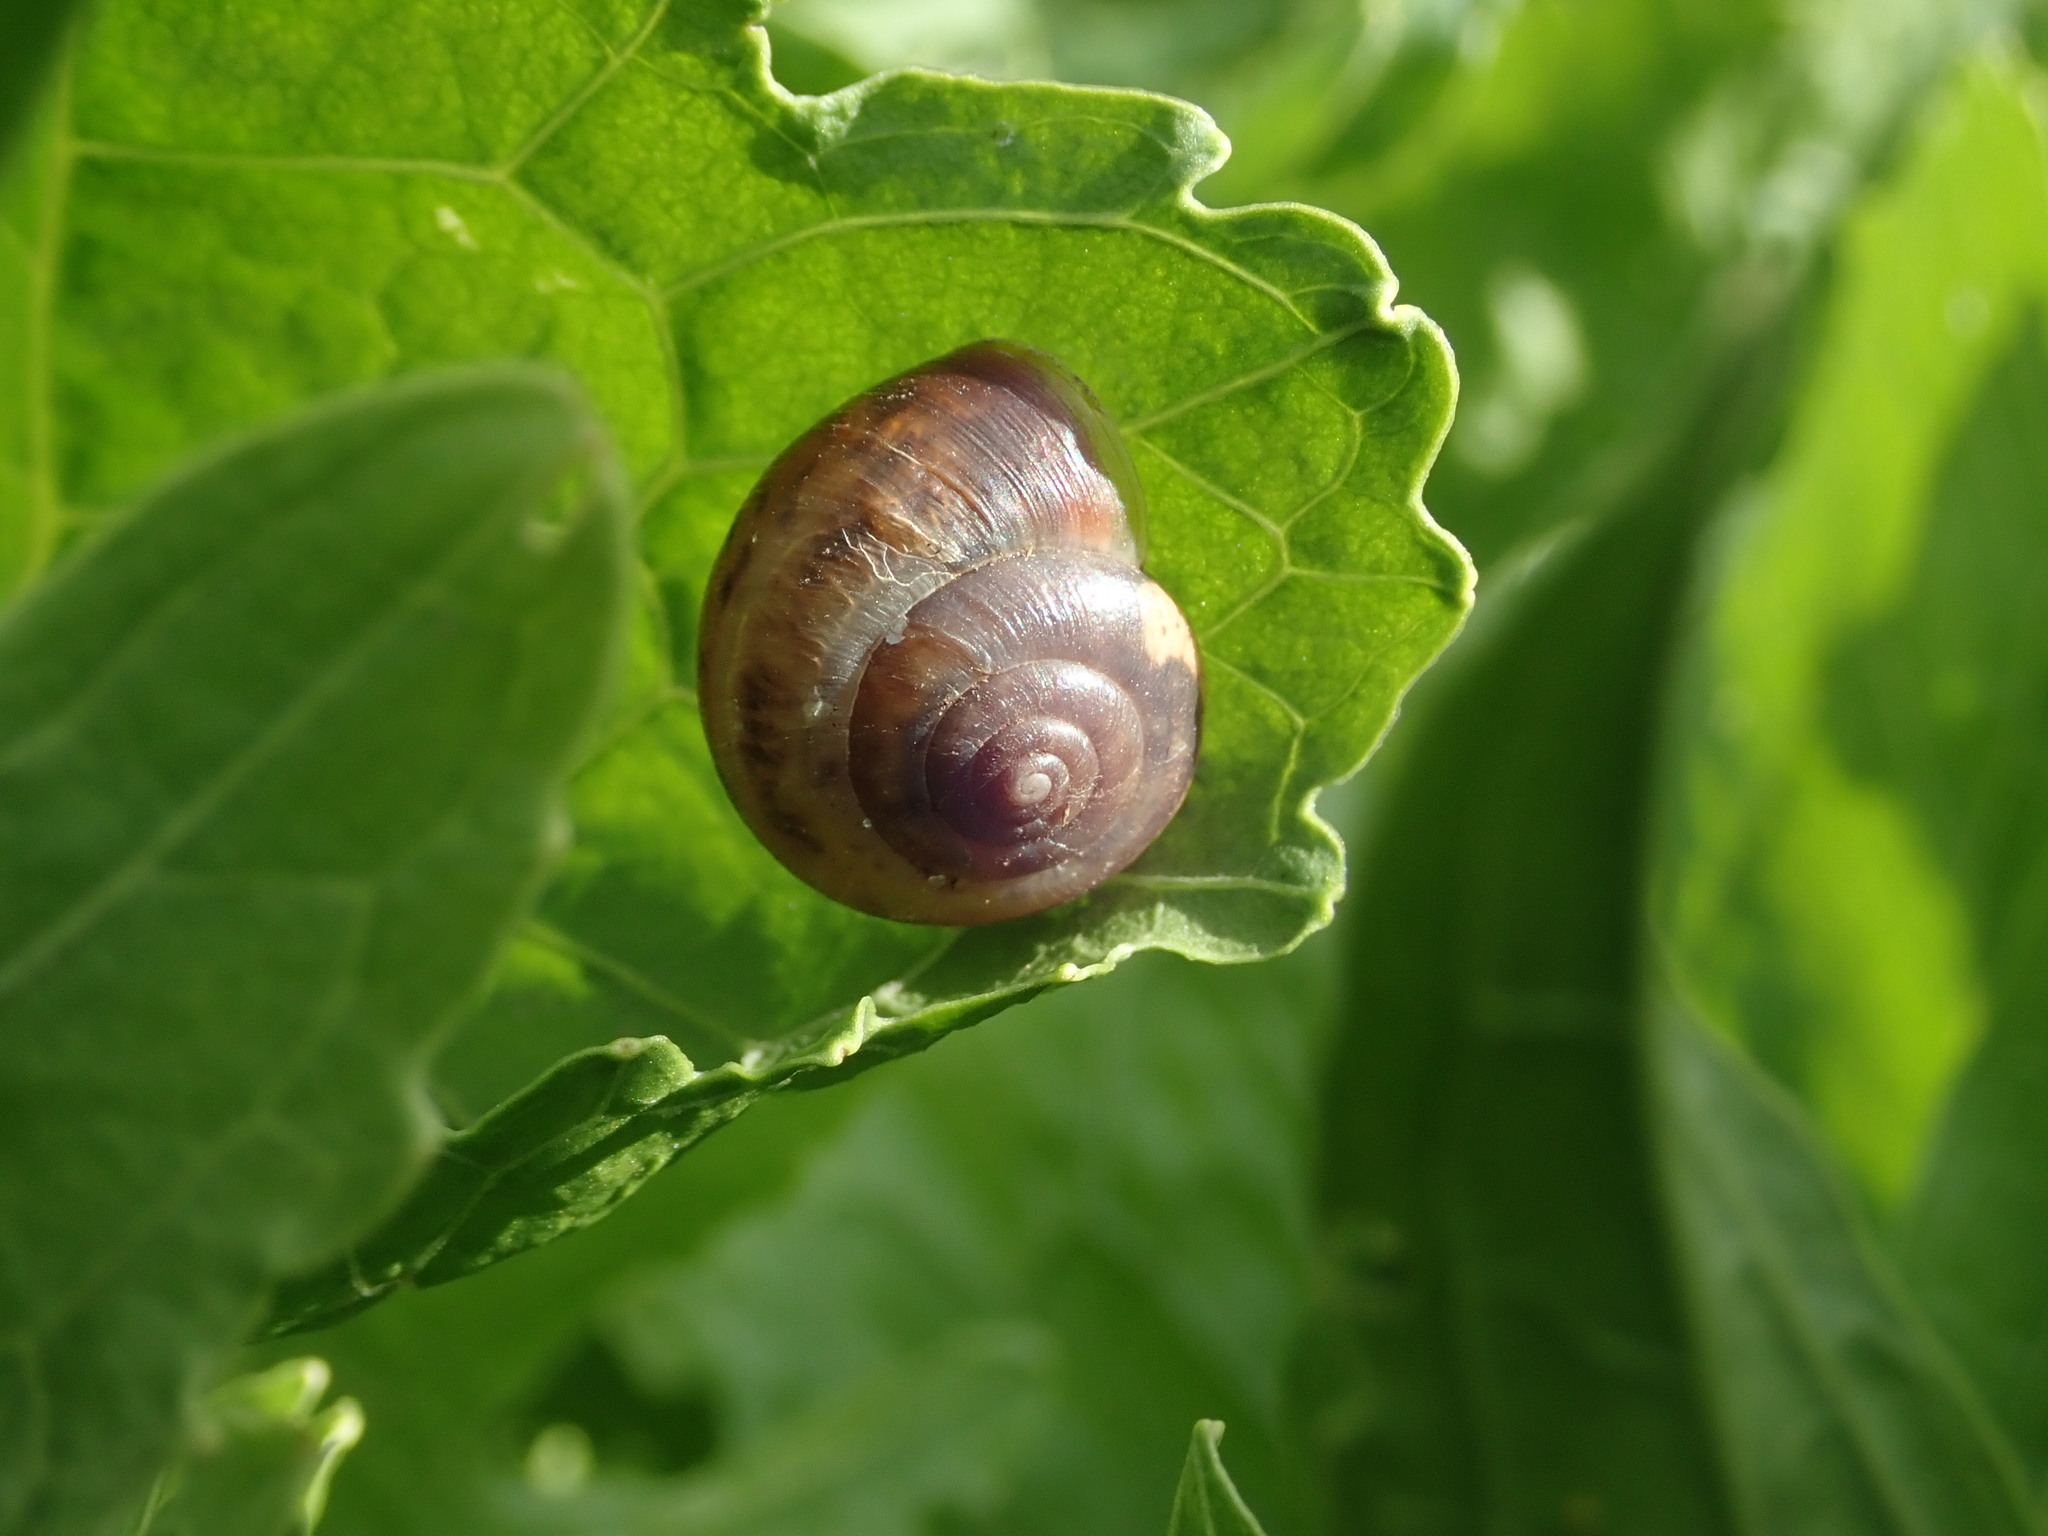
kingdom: Animalia
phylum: Mollusca
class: Gastropoda
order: Stylommatophora
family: Hygromiidae
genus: Monacha
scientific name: Monacha cantiana
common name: Kentish snail
